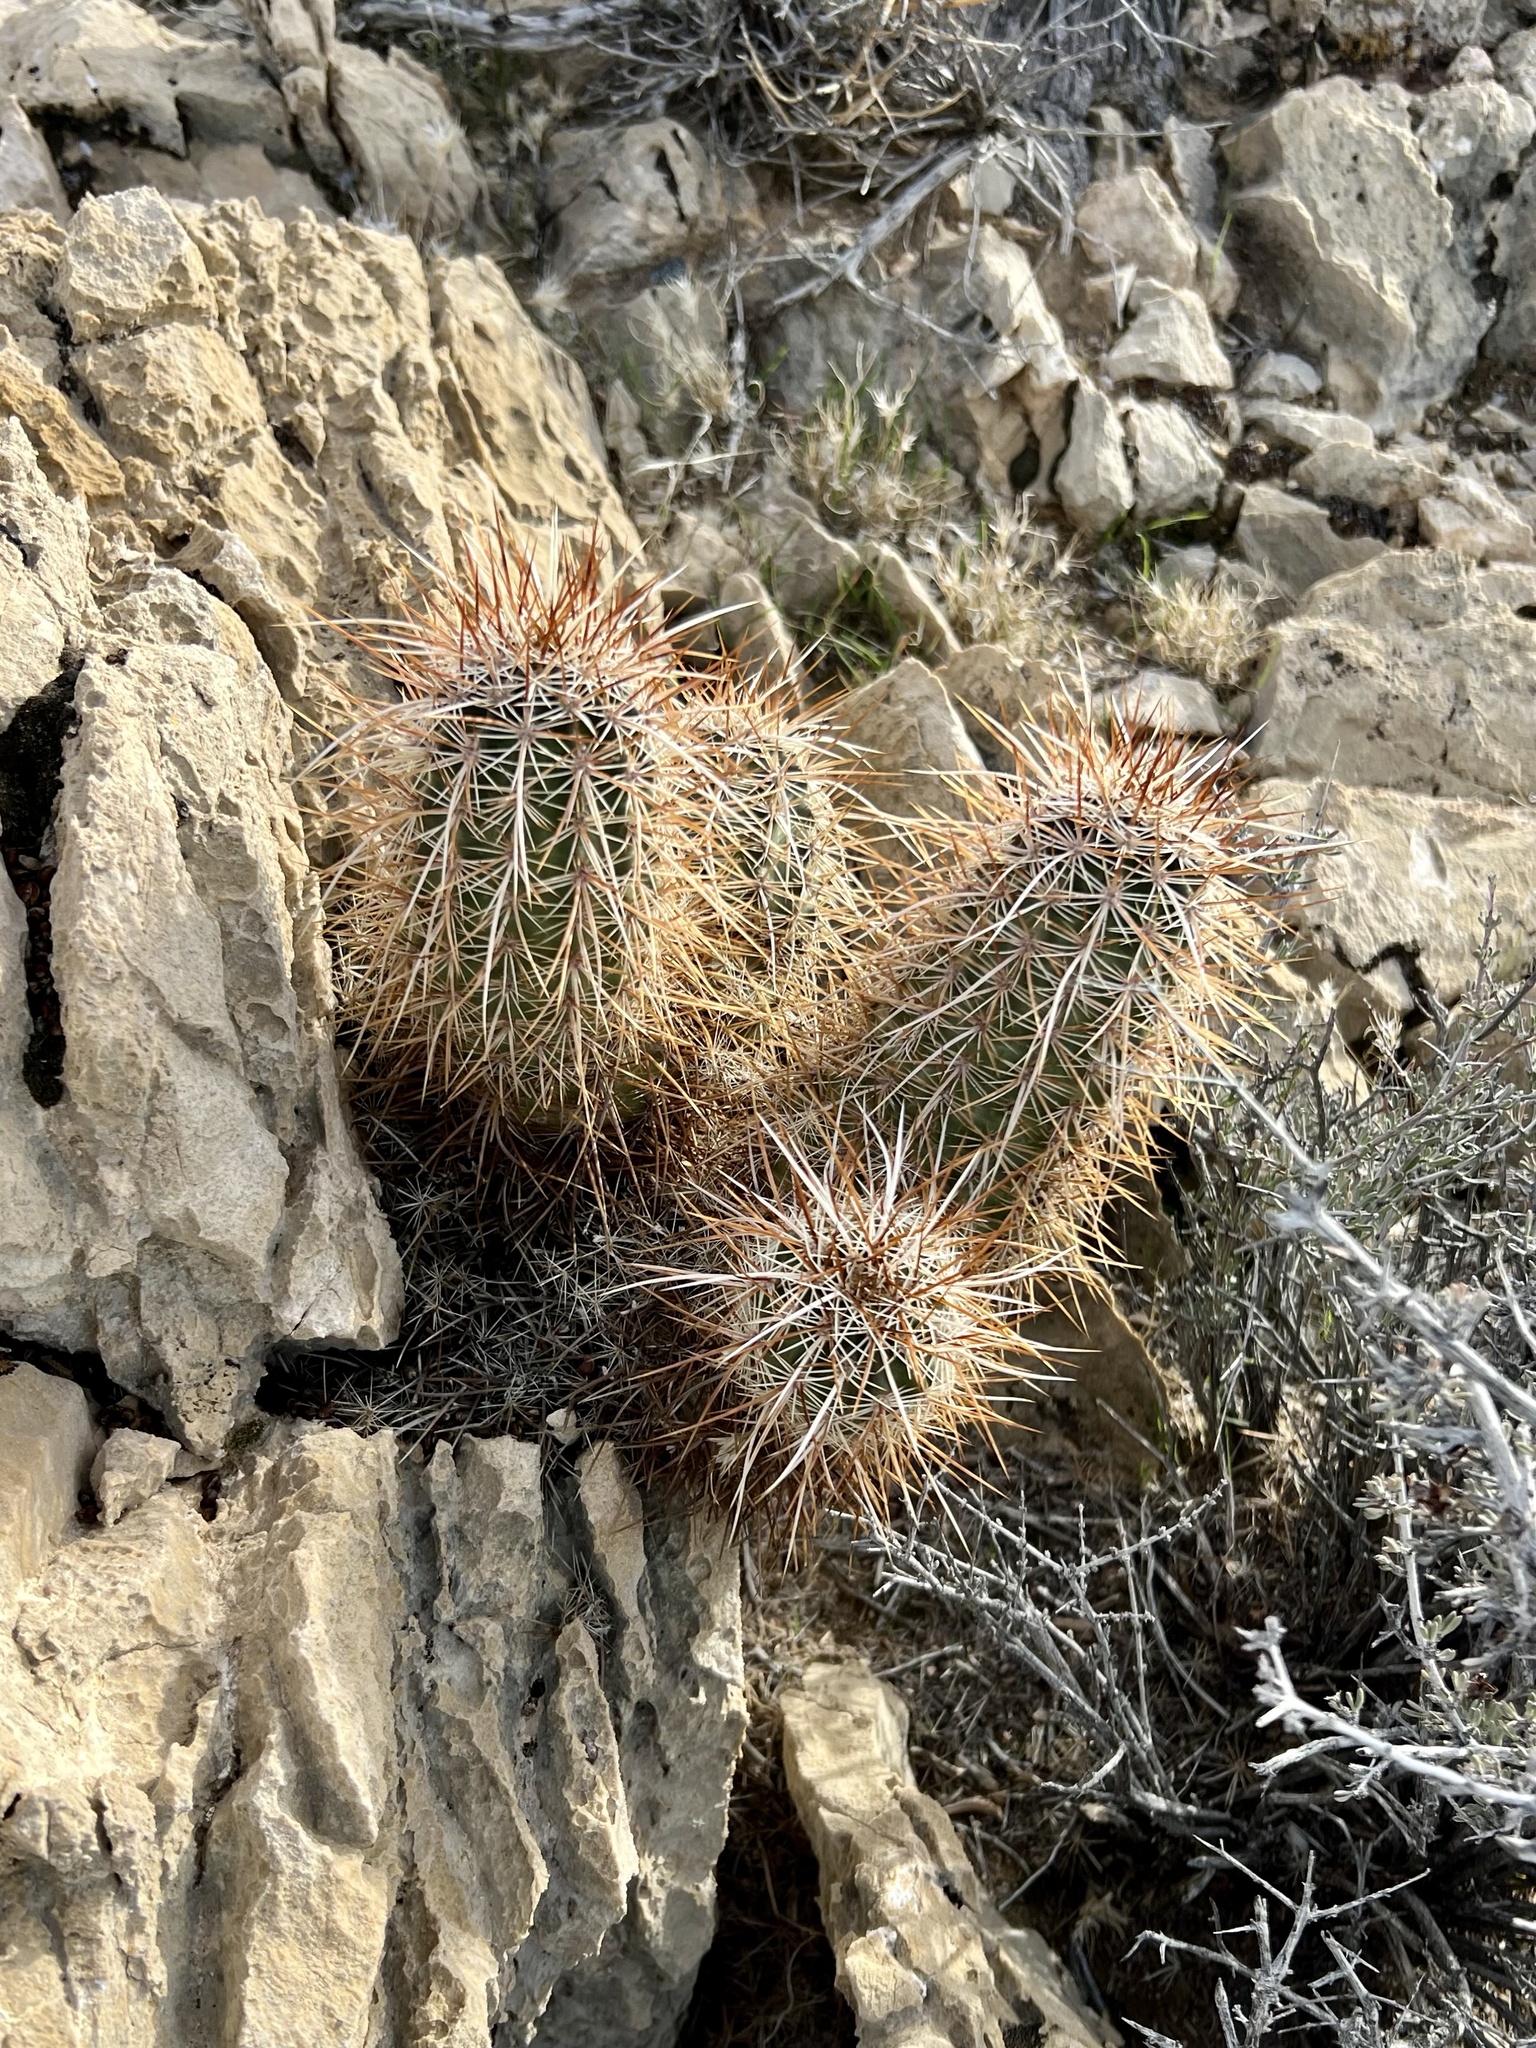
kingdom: Plantae
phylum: Tracheophyta
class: Magnoliopsida
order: Caryophyllales
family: Cactaceae
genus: Echinocereus
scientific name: Echinocereus engelmannii
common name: Engelmann's hedgehog cactus
